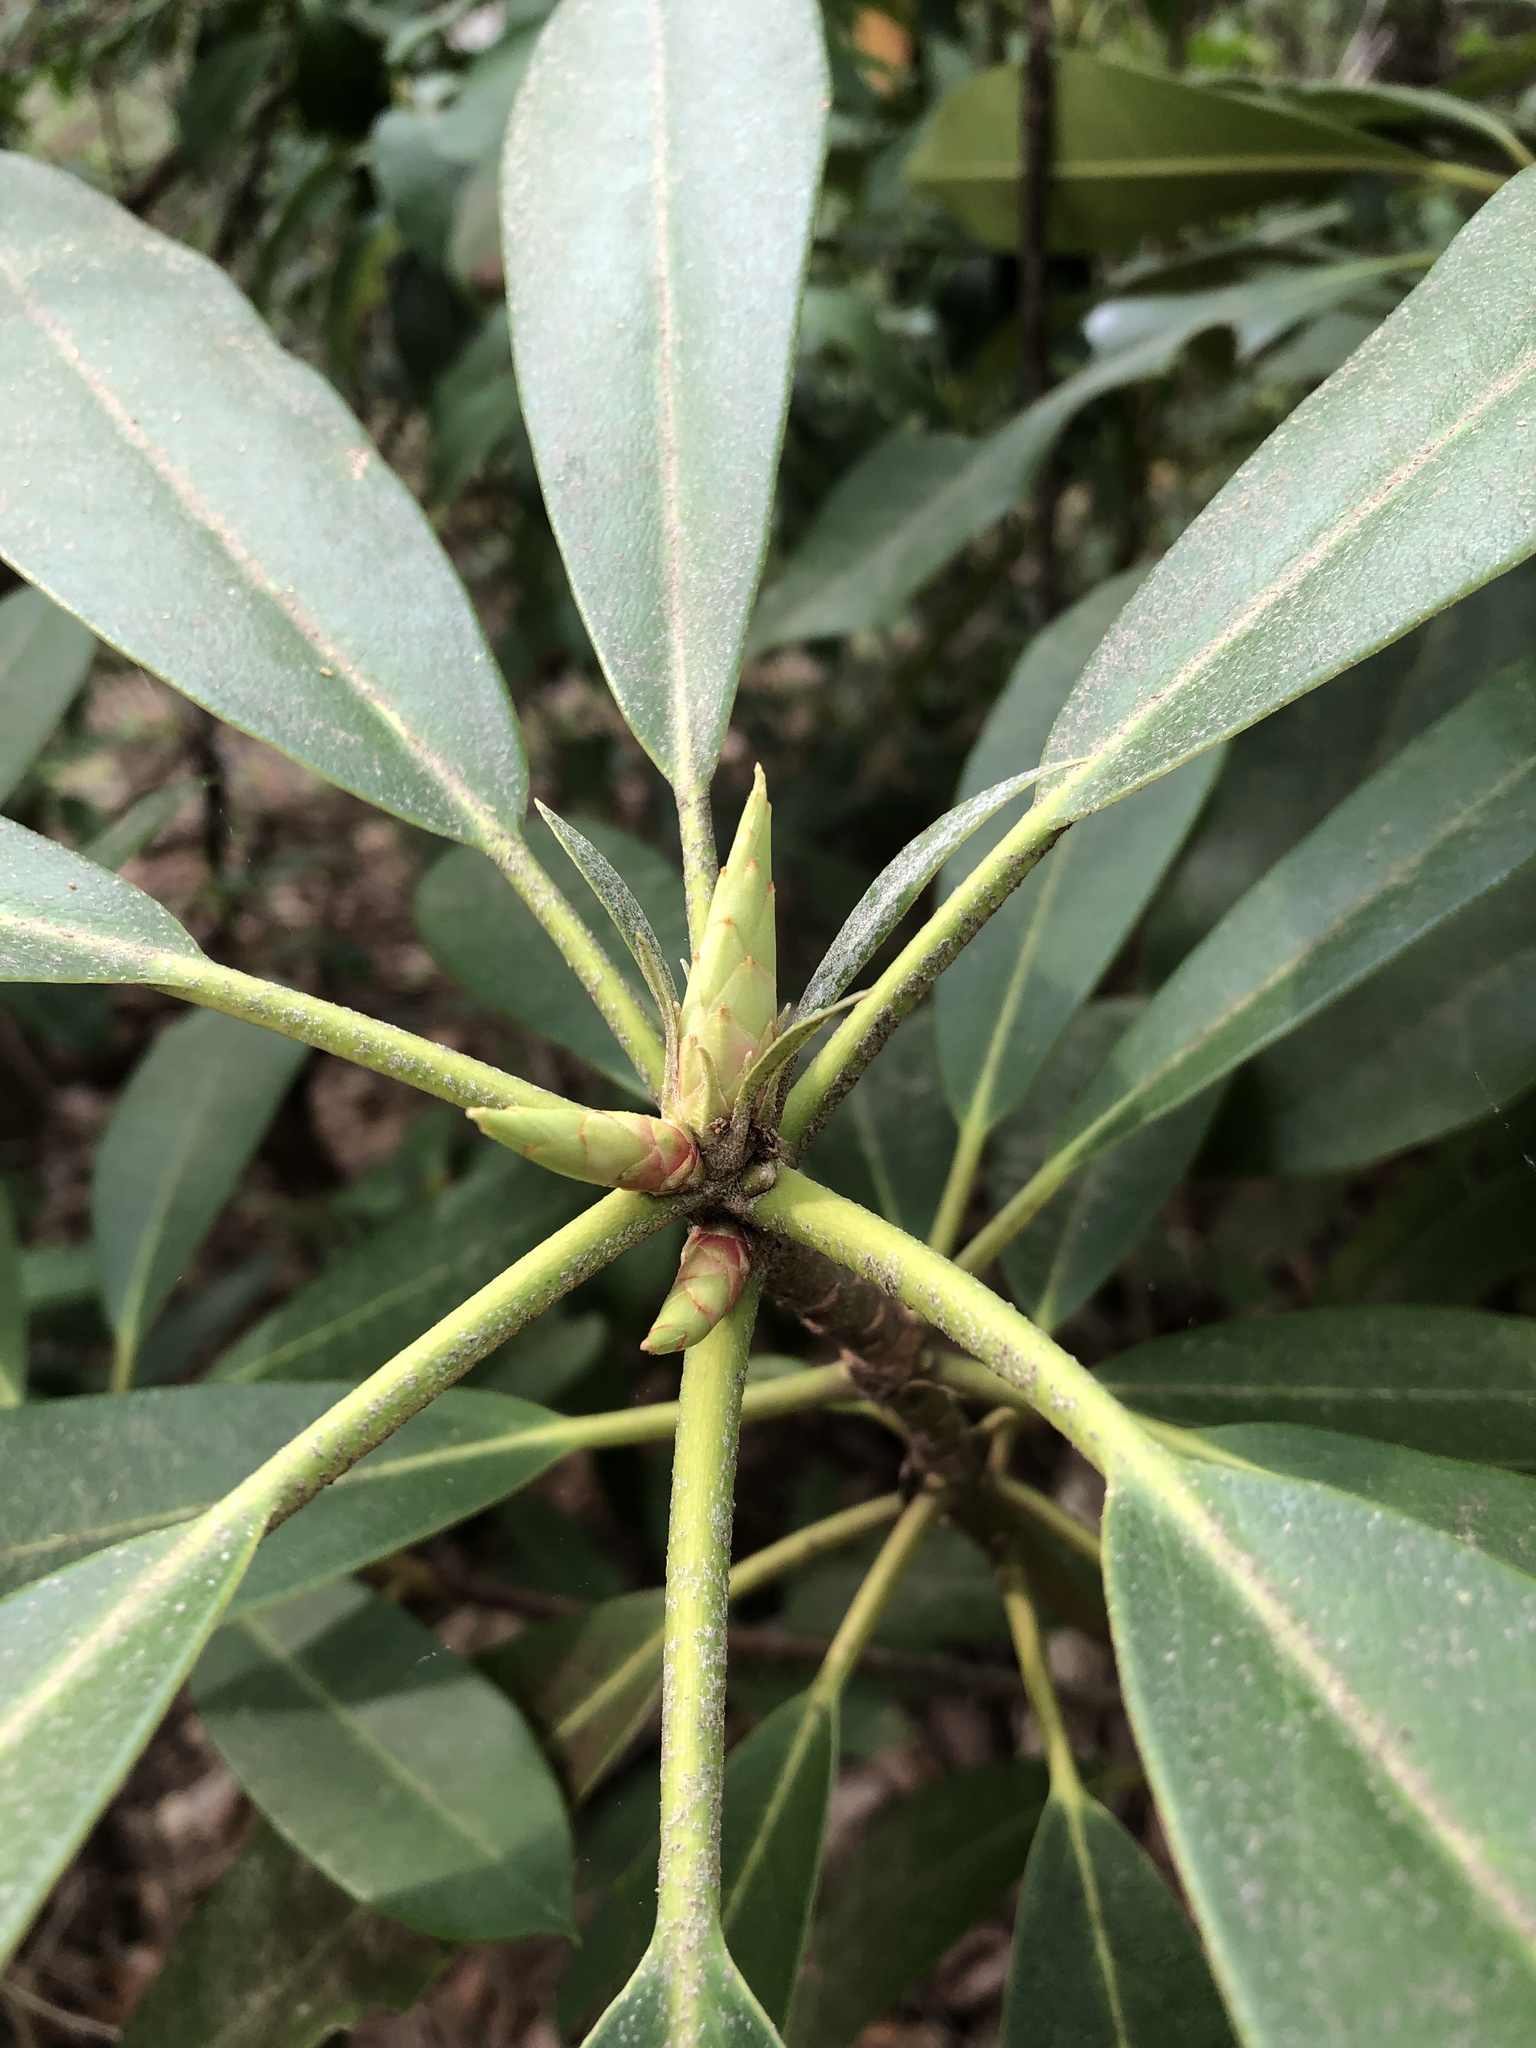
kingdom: Plantae
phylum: Tracheophyta
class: Magnoliopsida
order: Ericales
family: Ericaceae
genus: Rhododendron
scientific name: Rhododendron maximum
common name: Great rhododendron
